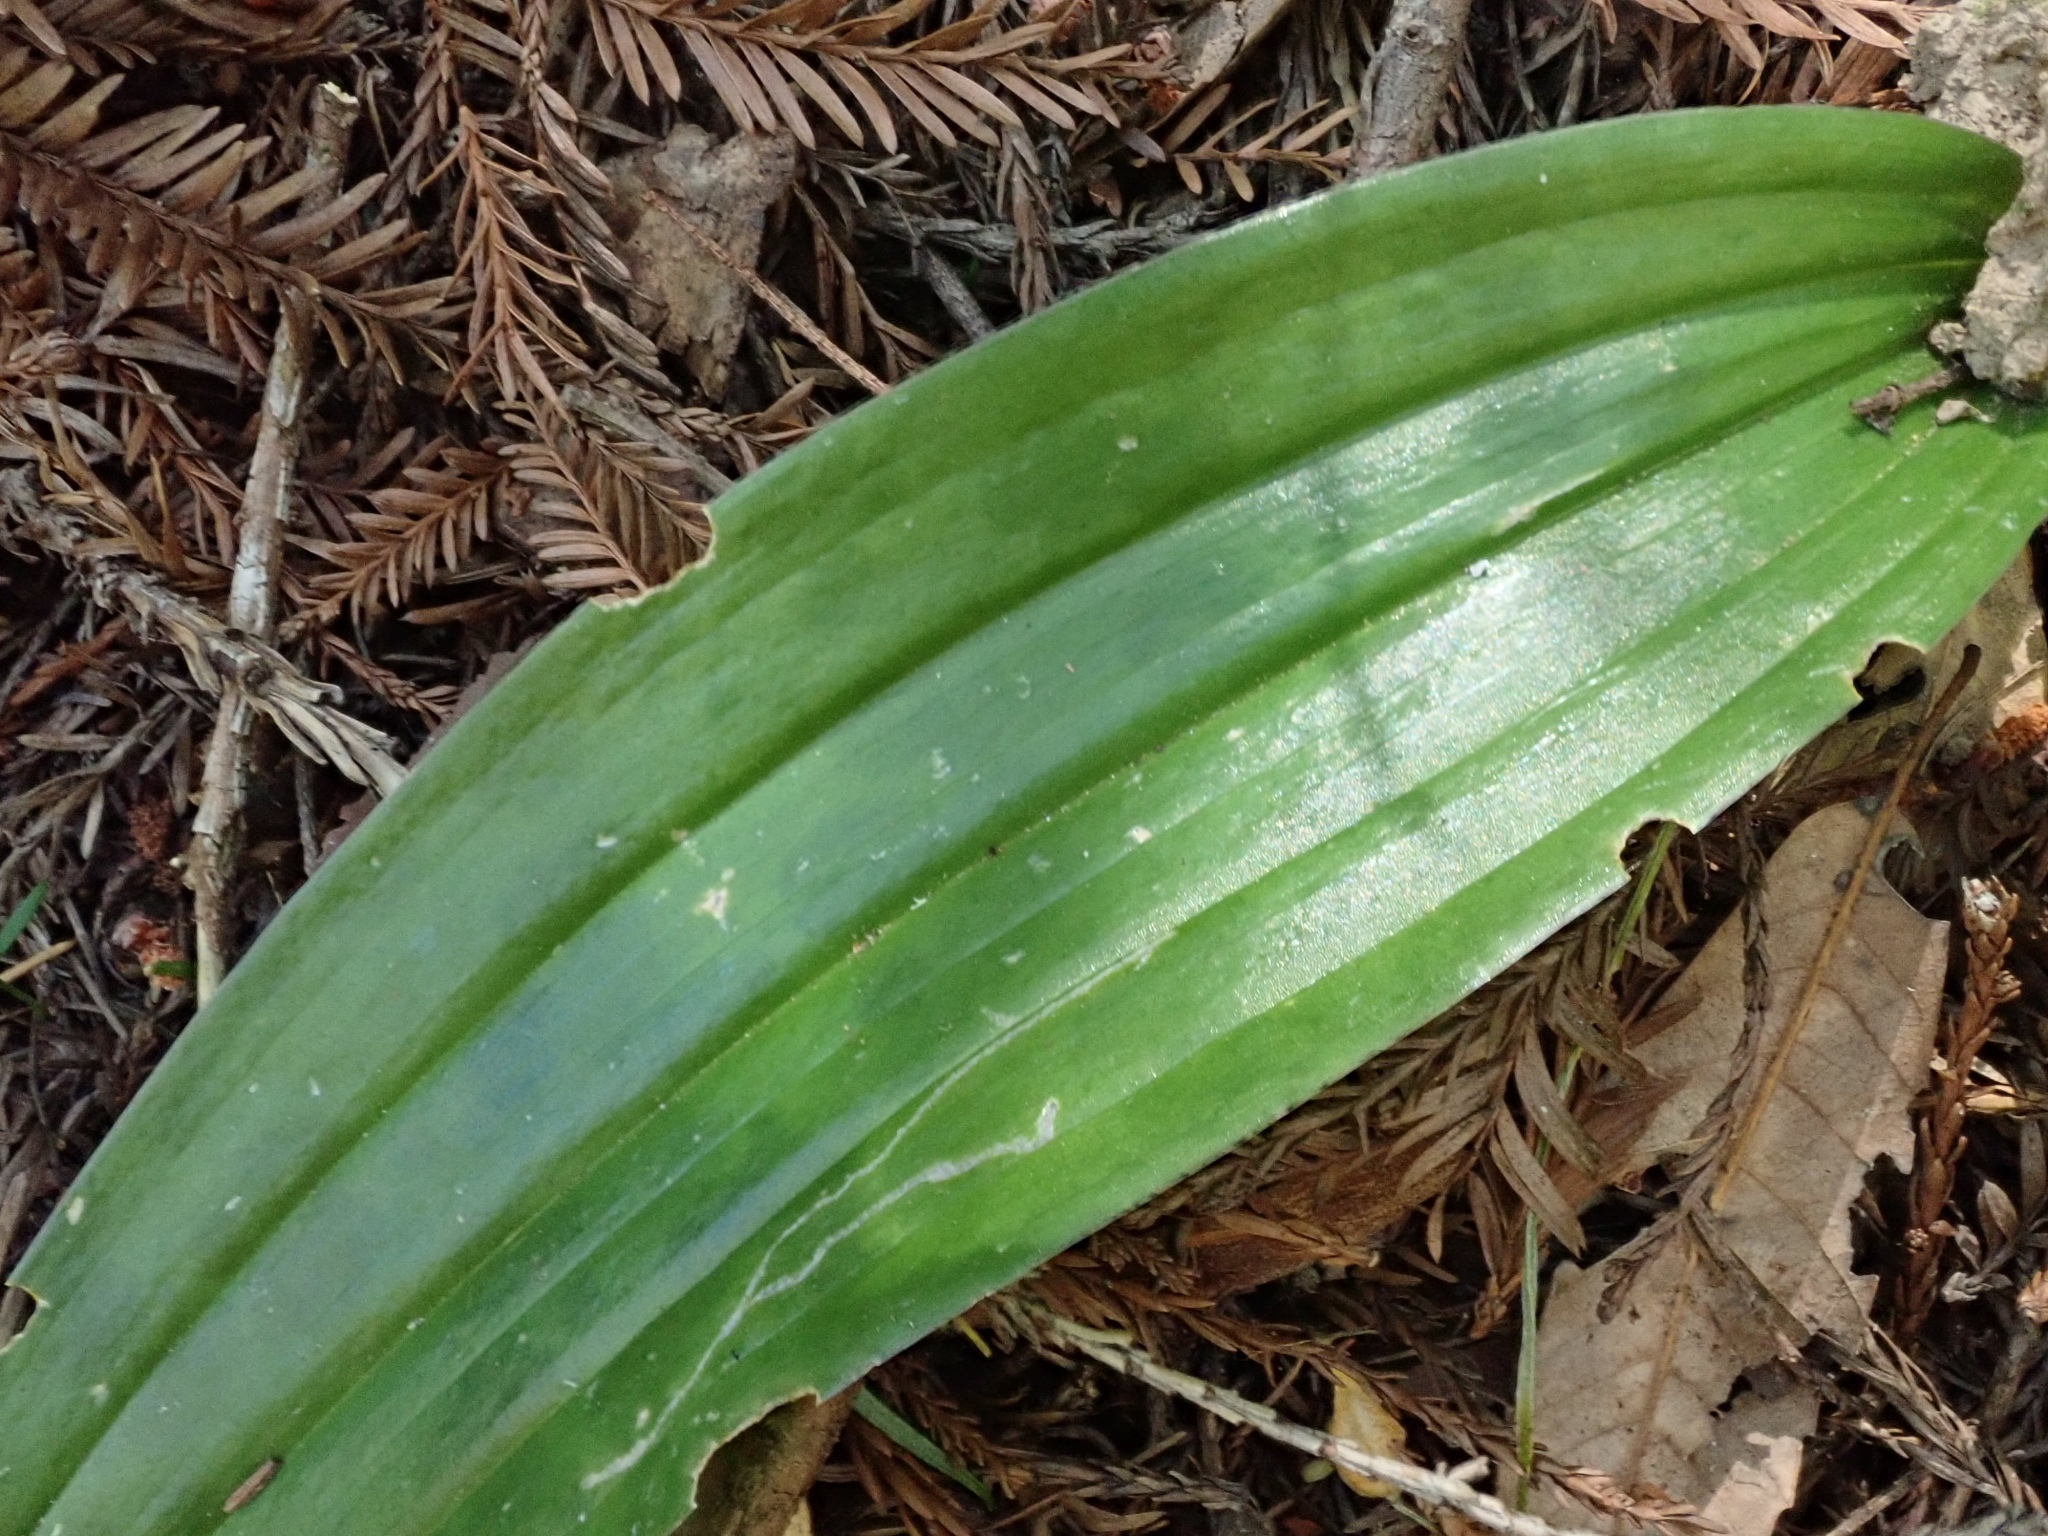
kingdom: Plantae
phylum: Tracheophyta
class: Liliopsida
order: Liliales
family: Liliaceae
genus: Scoliopus
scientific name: Scoliopus bigelovii
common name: Foetid adder's-tongue
